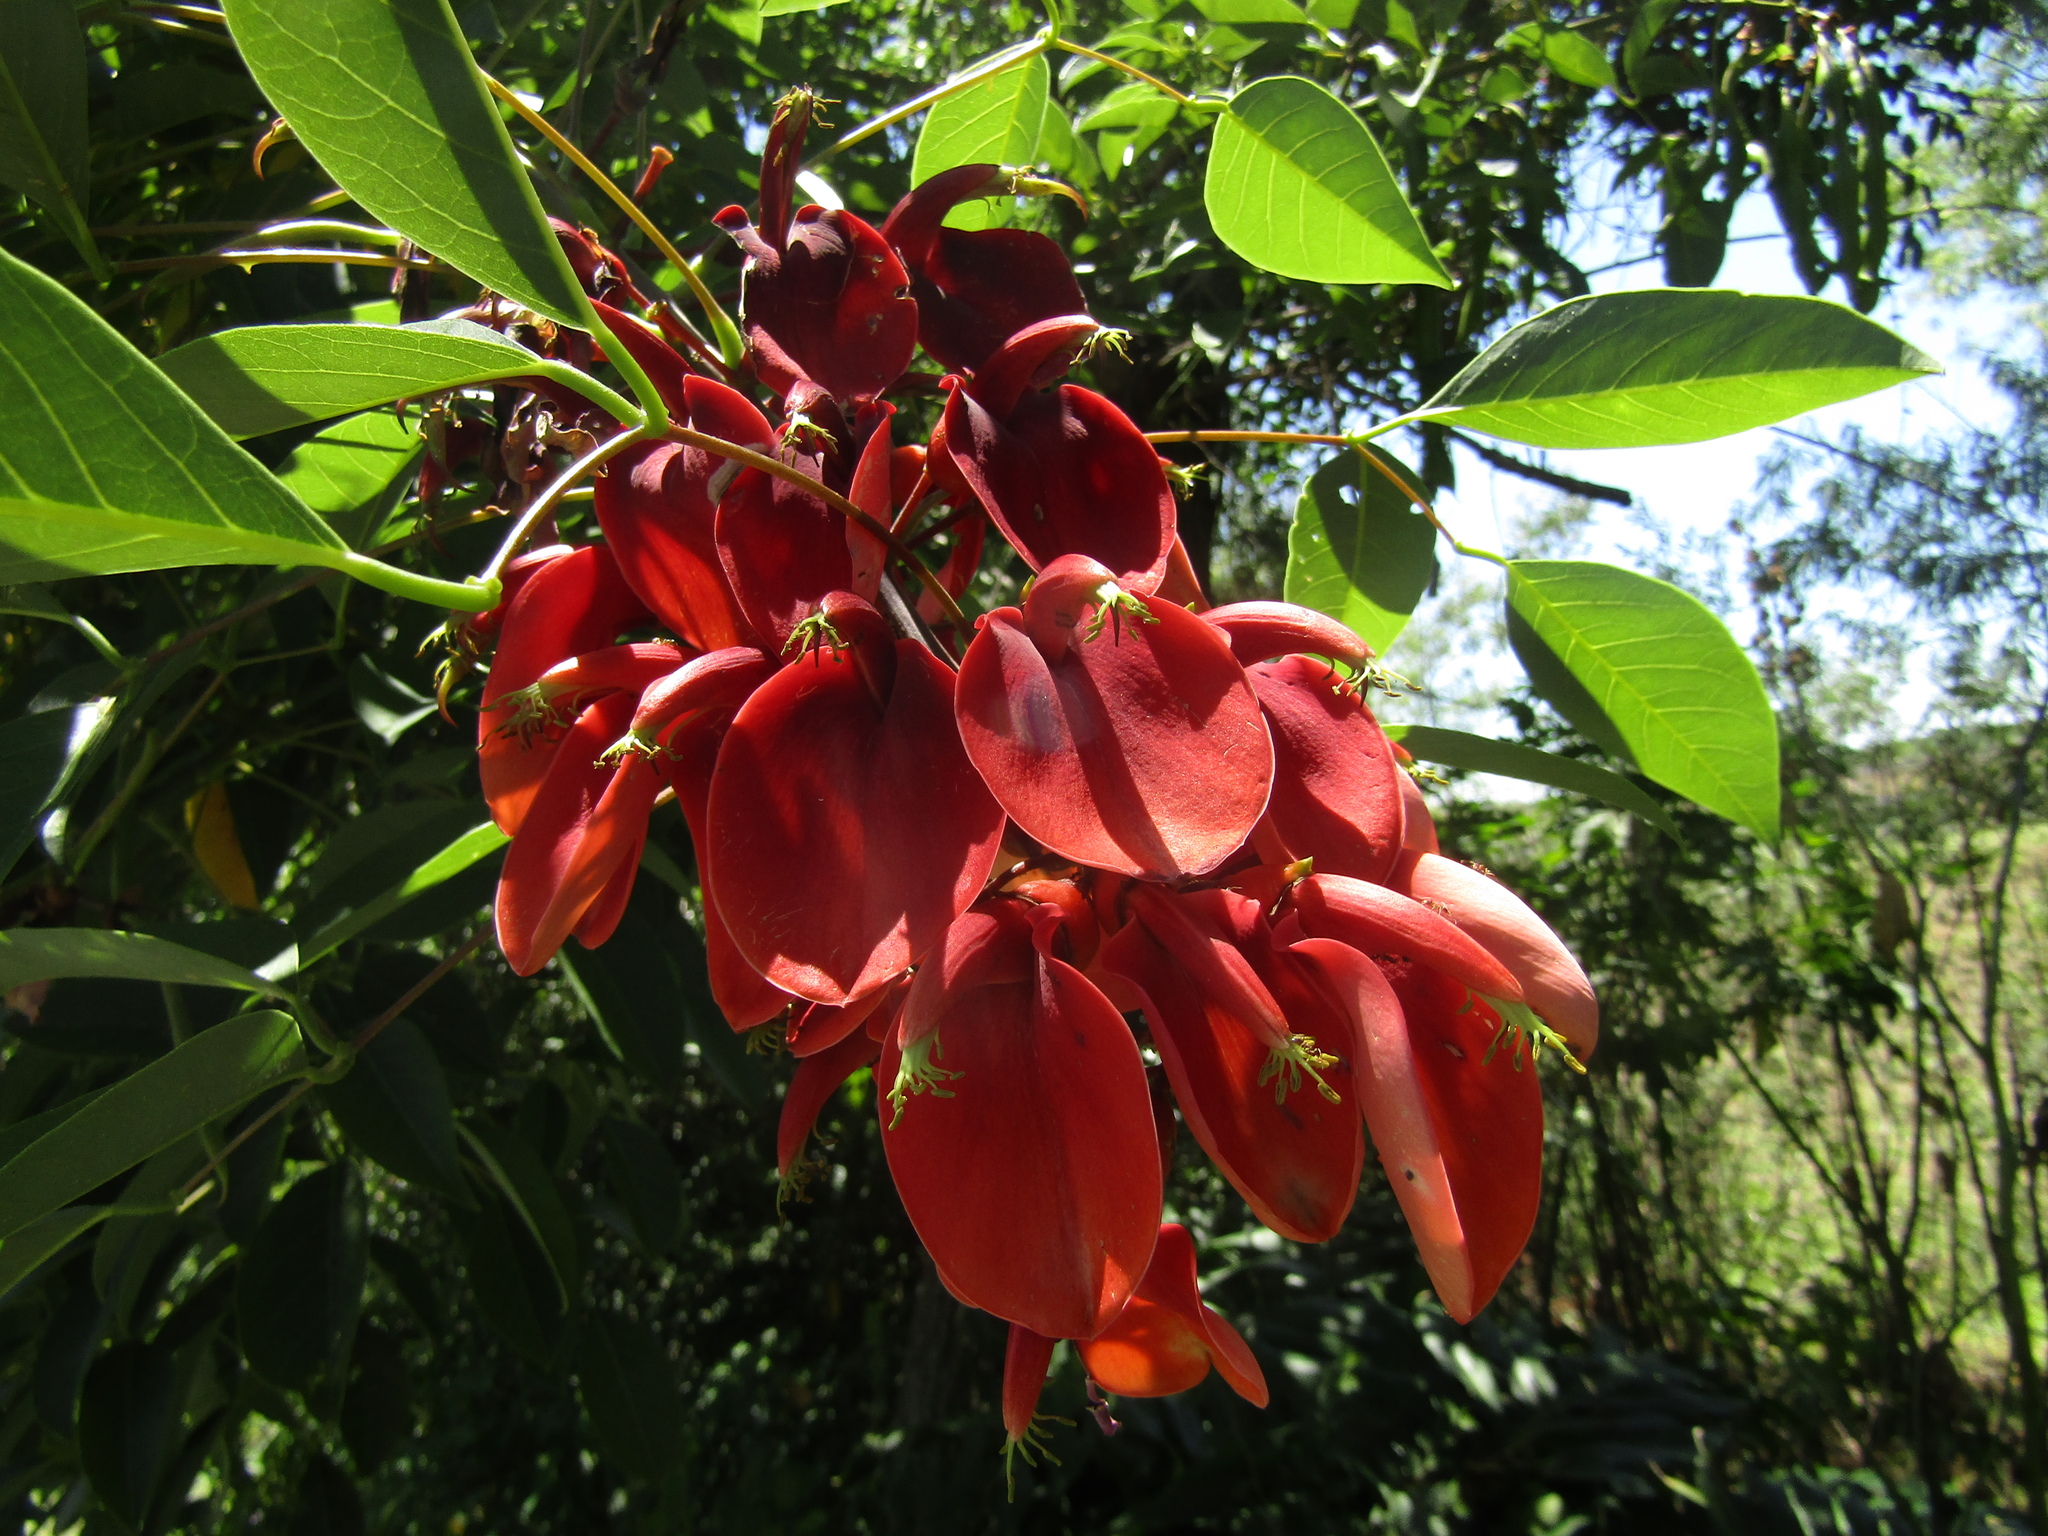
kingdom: Plantae
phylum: Tracheophyta
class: Magnoliopsida
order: Fabales
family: Fabaceae
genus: Erythrina
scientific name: Erythrina crista-galli
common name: Cockspur coral tree
